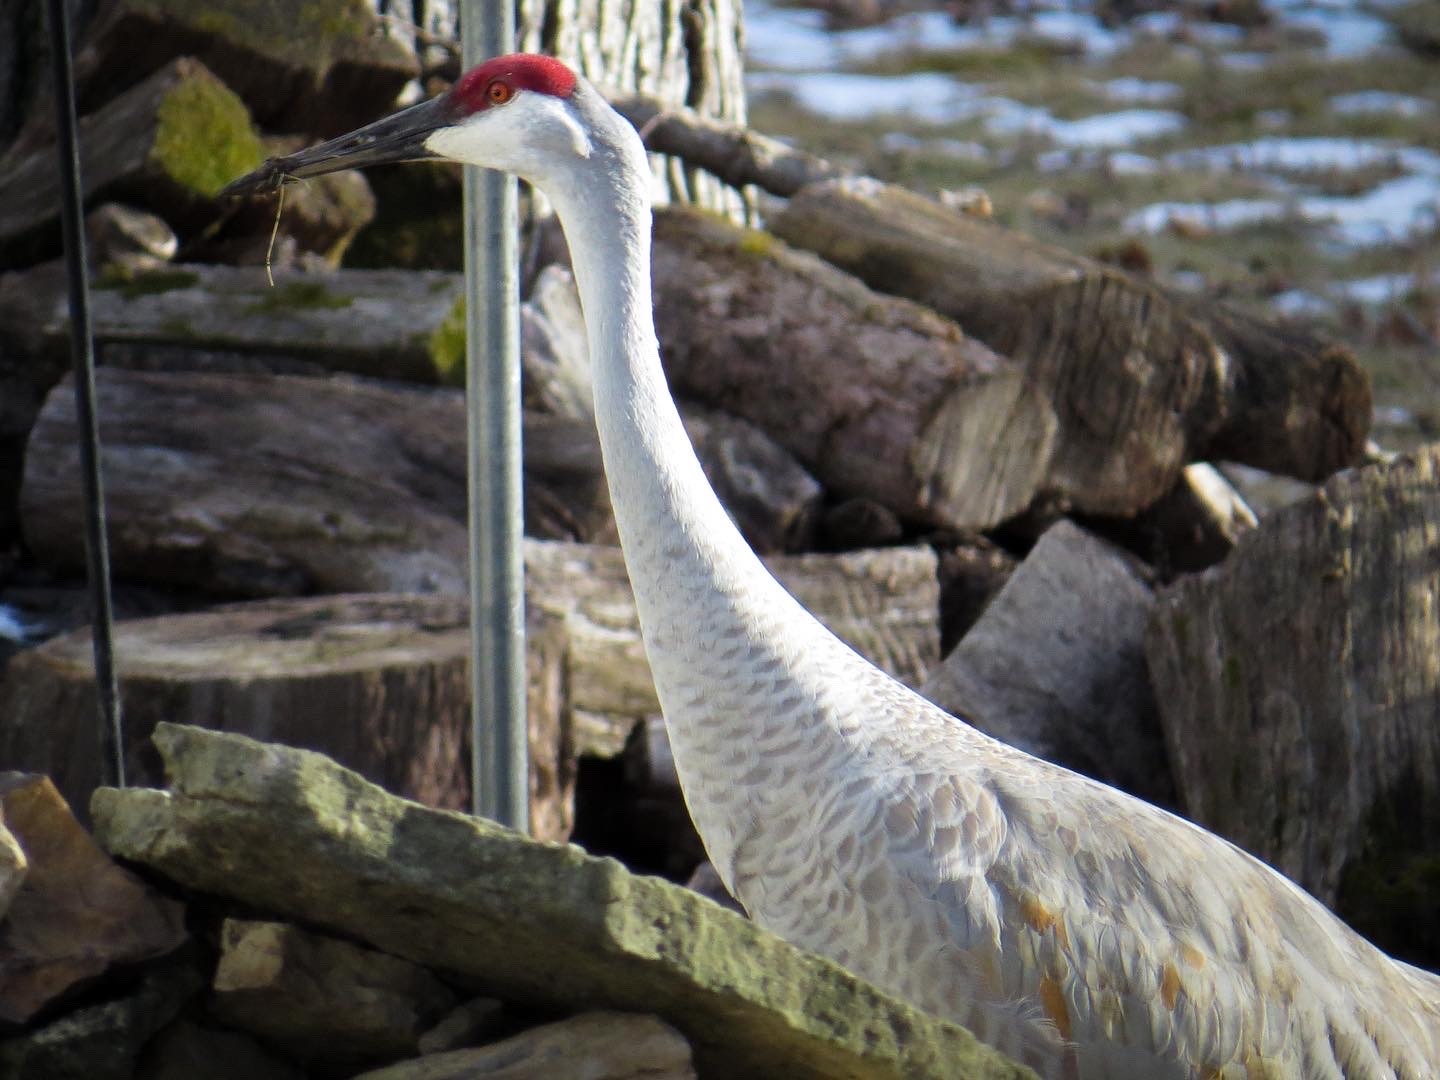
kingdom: Animalia
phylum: Chordata
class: Aves
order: Gruiformes
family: Gruidae
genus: Grus
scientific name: Grus canadensis
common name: Sandhill crane
